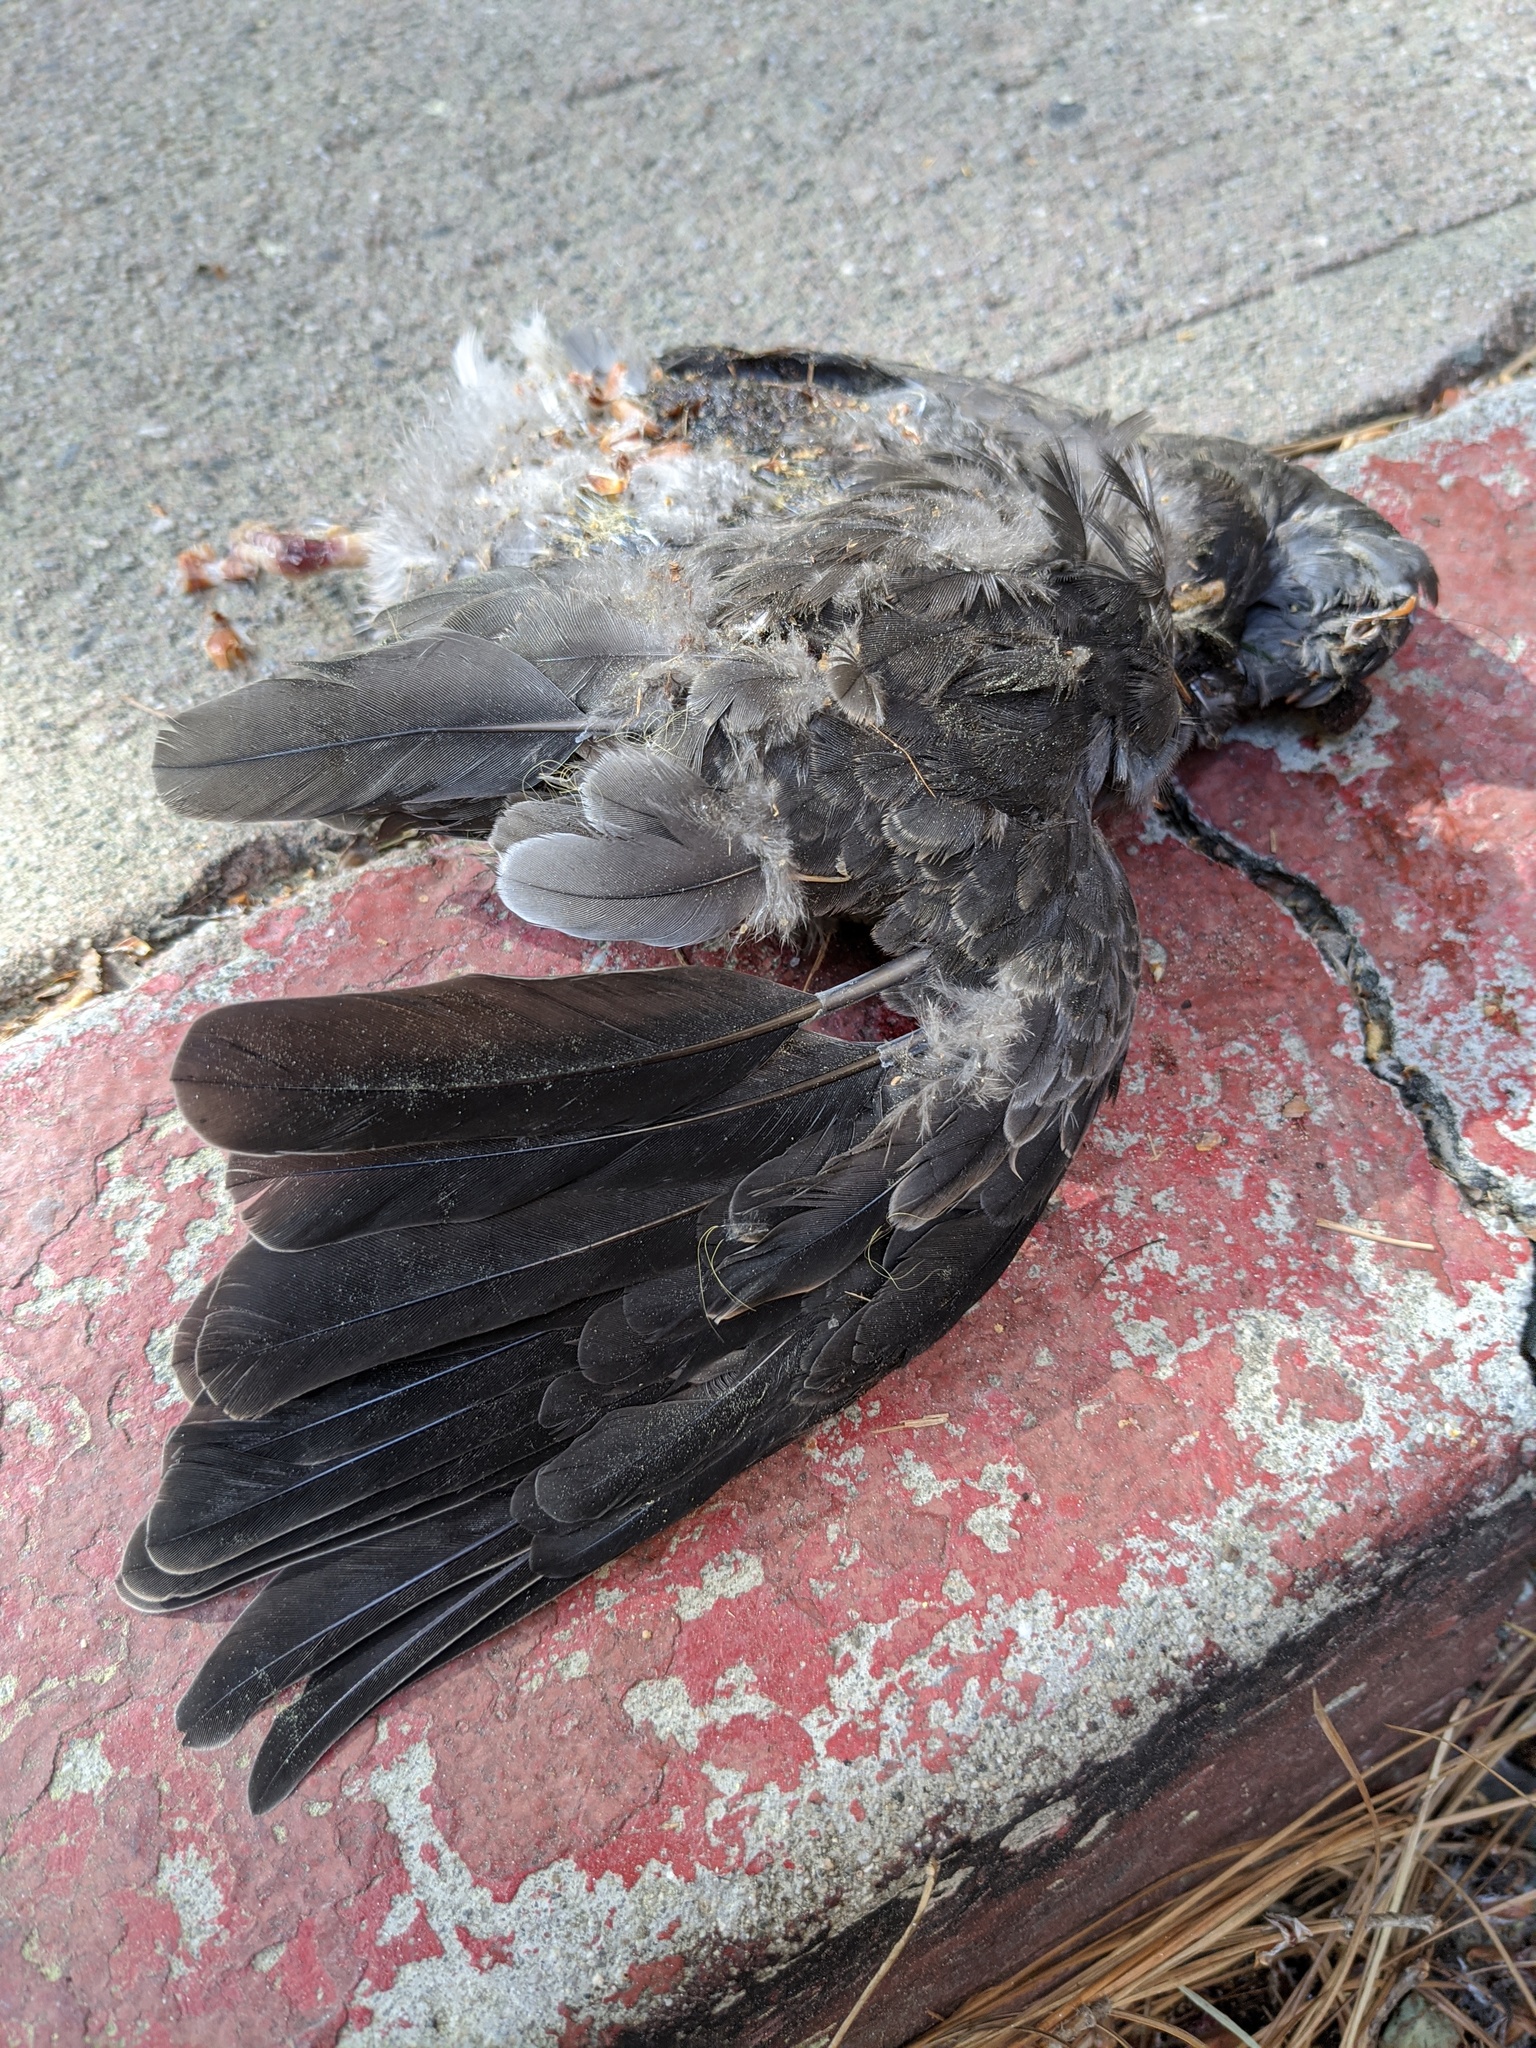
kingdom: Animalia
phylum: Chordata
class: Aves
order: Columbiformes
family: Columbidae
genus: Patagioenas
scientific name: Patagioenas fasciata
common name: Band-tailed pigeon
